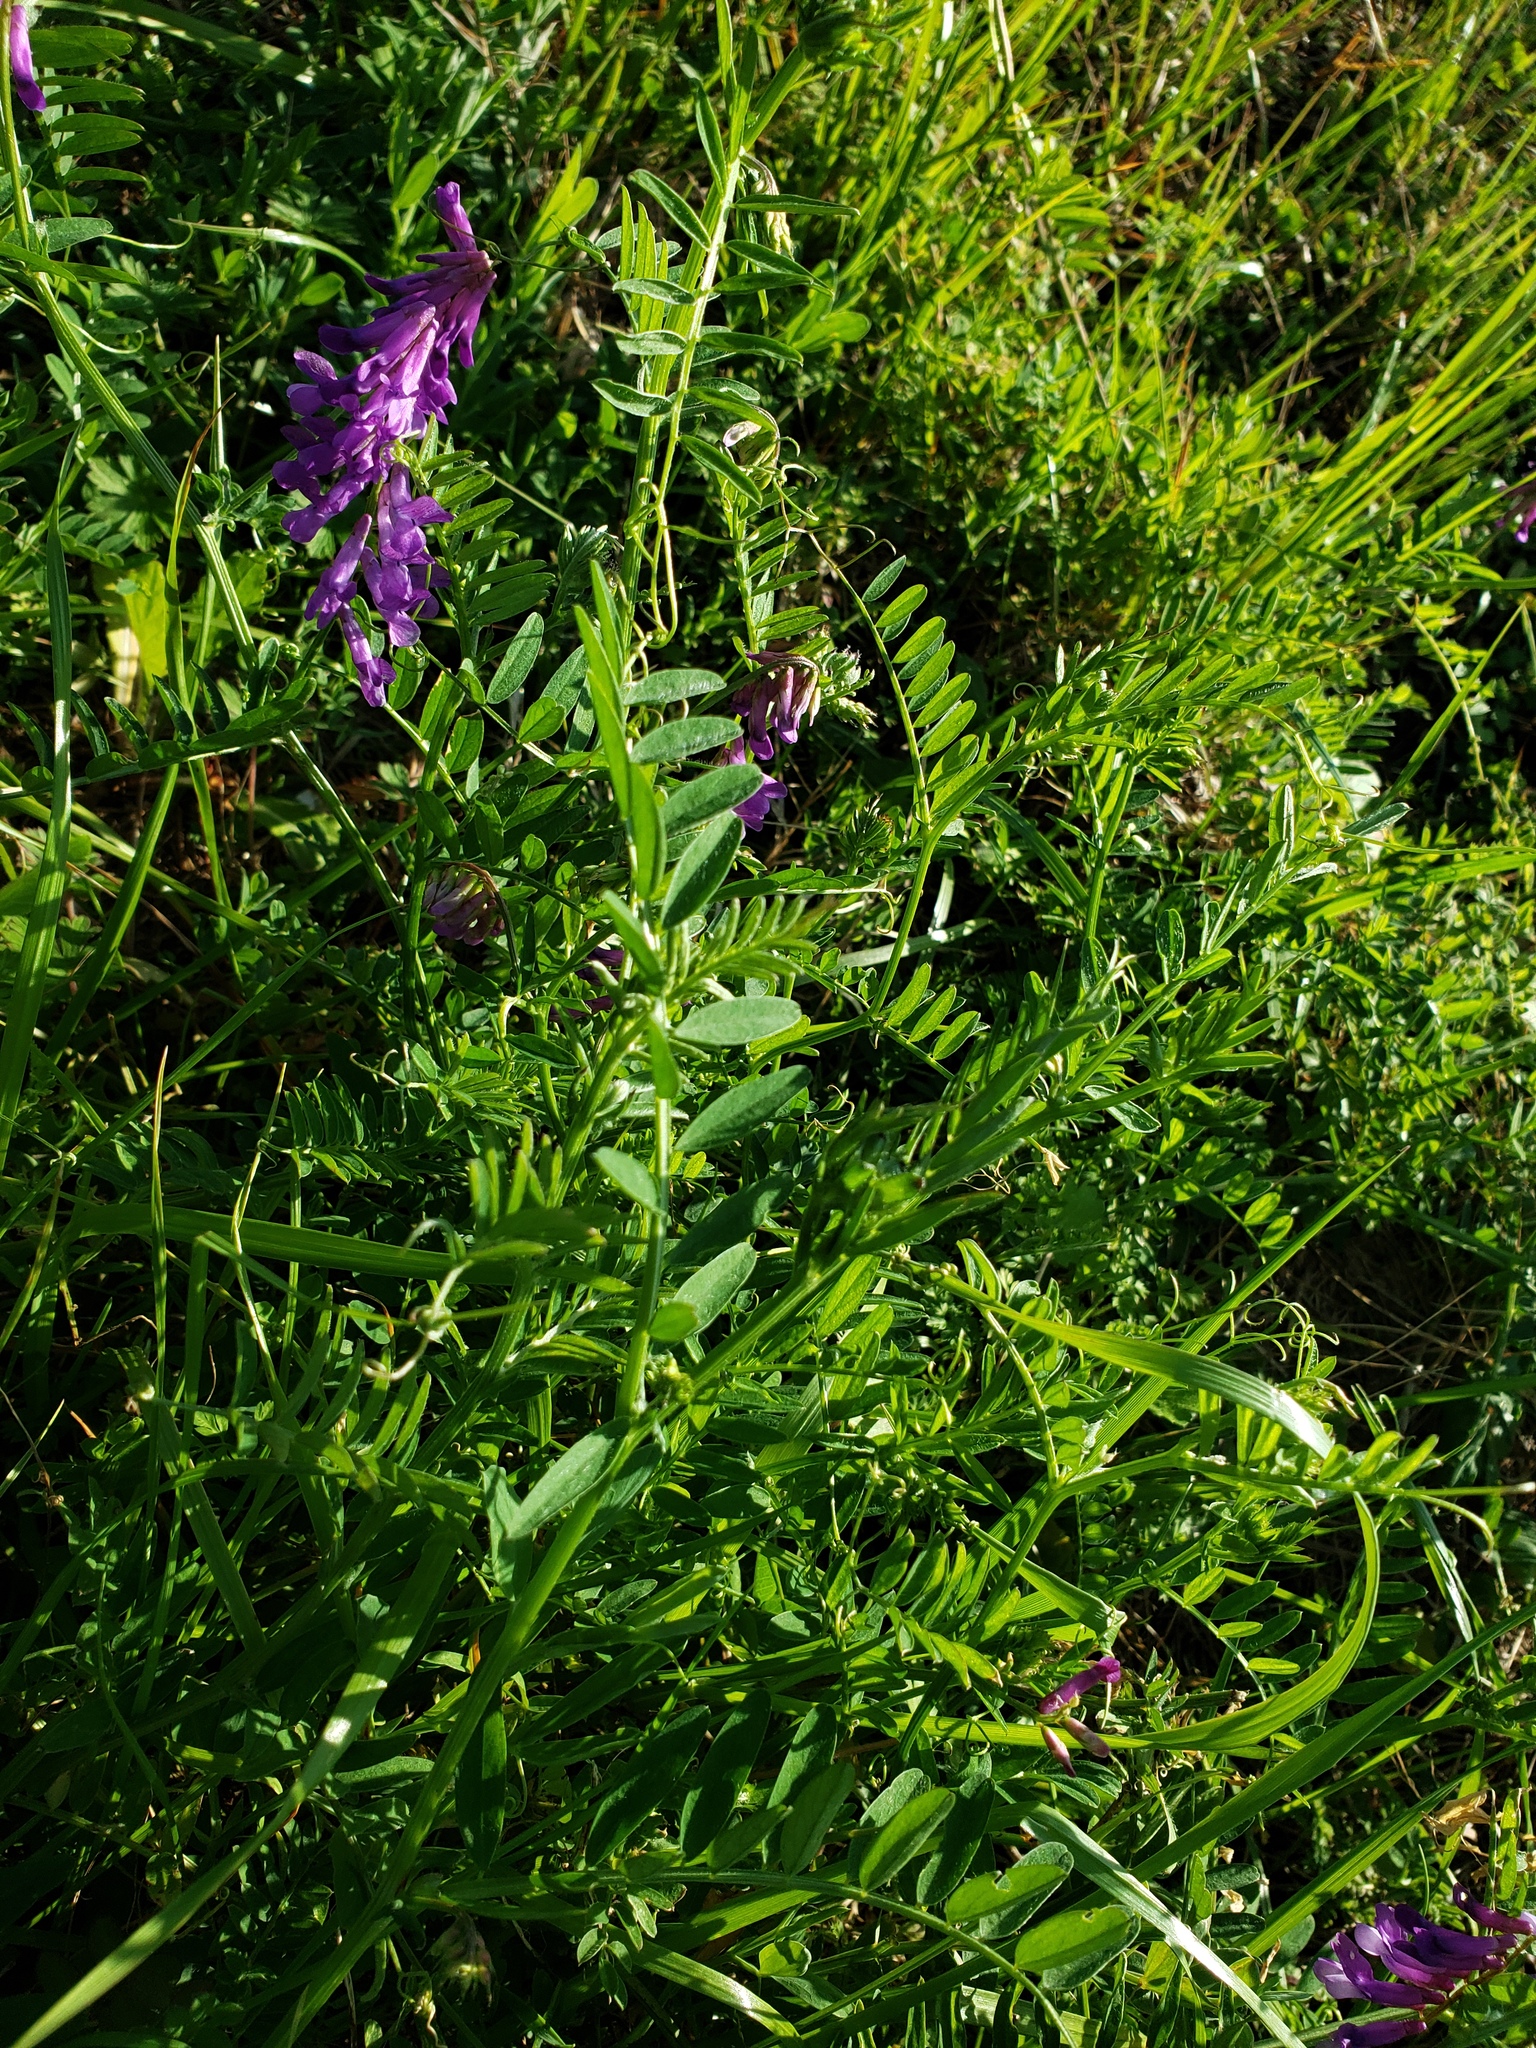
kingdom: Plantae
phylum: Tracheophyta
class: Magnoliopsida
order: Fabales
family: Fabaceae
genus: Vicia
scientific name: Vicia villosa
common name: Fodder vetch
